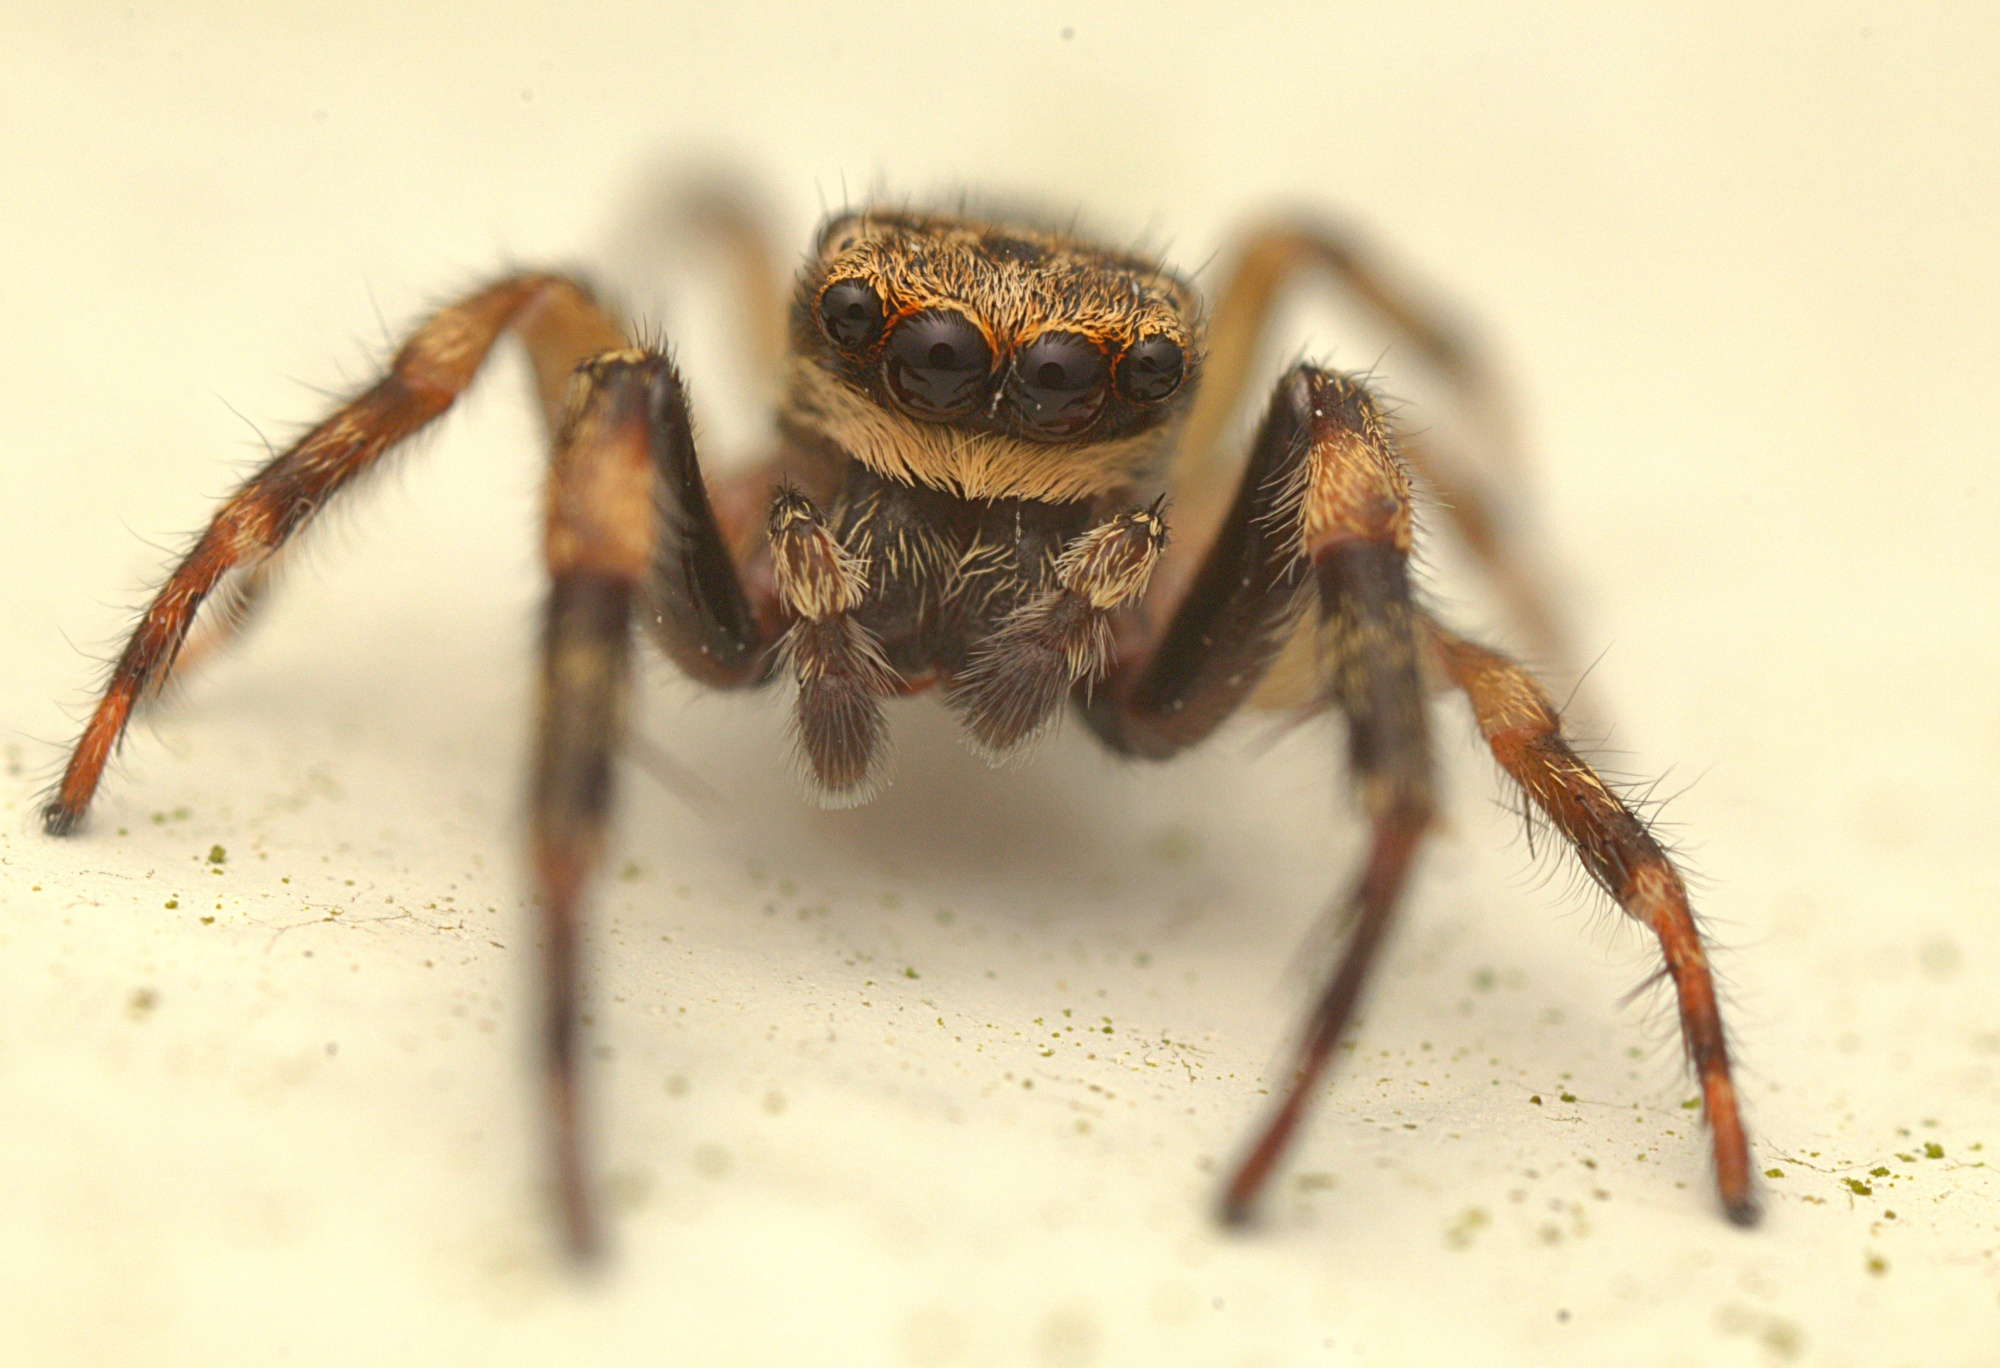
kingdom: Animalia
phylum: Arthropoda
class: Arachnida
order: Araneae
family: Salticidae
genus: Trite
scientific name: Trite auricoma
